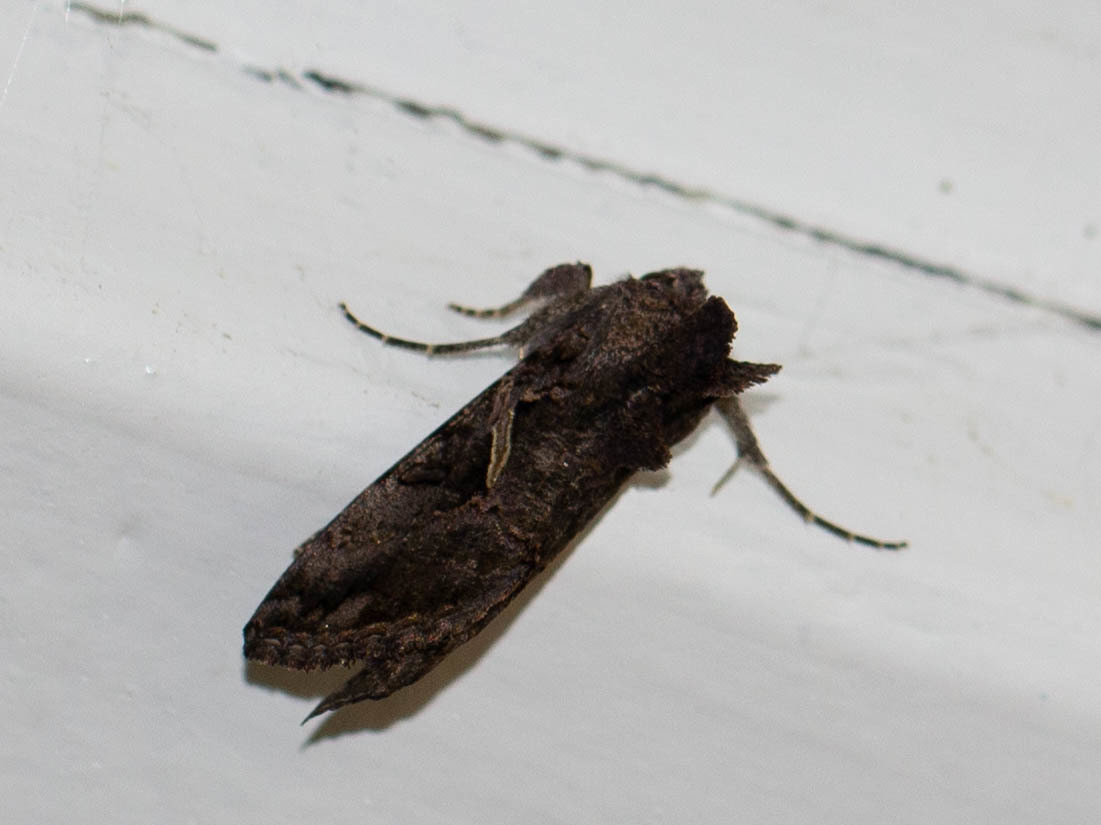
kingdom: Animalia
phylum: Arthropoda
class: Insecta
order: Lepidoptera
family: Noctuidae
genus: Ctenoplusia
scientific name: Ctenoplusia oxygramma
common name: Sharp-stigma looper moth
